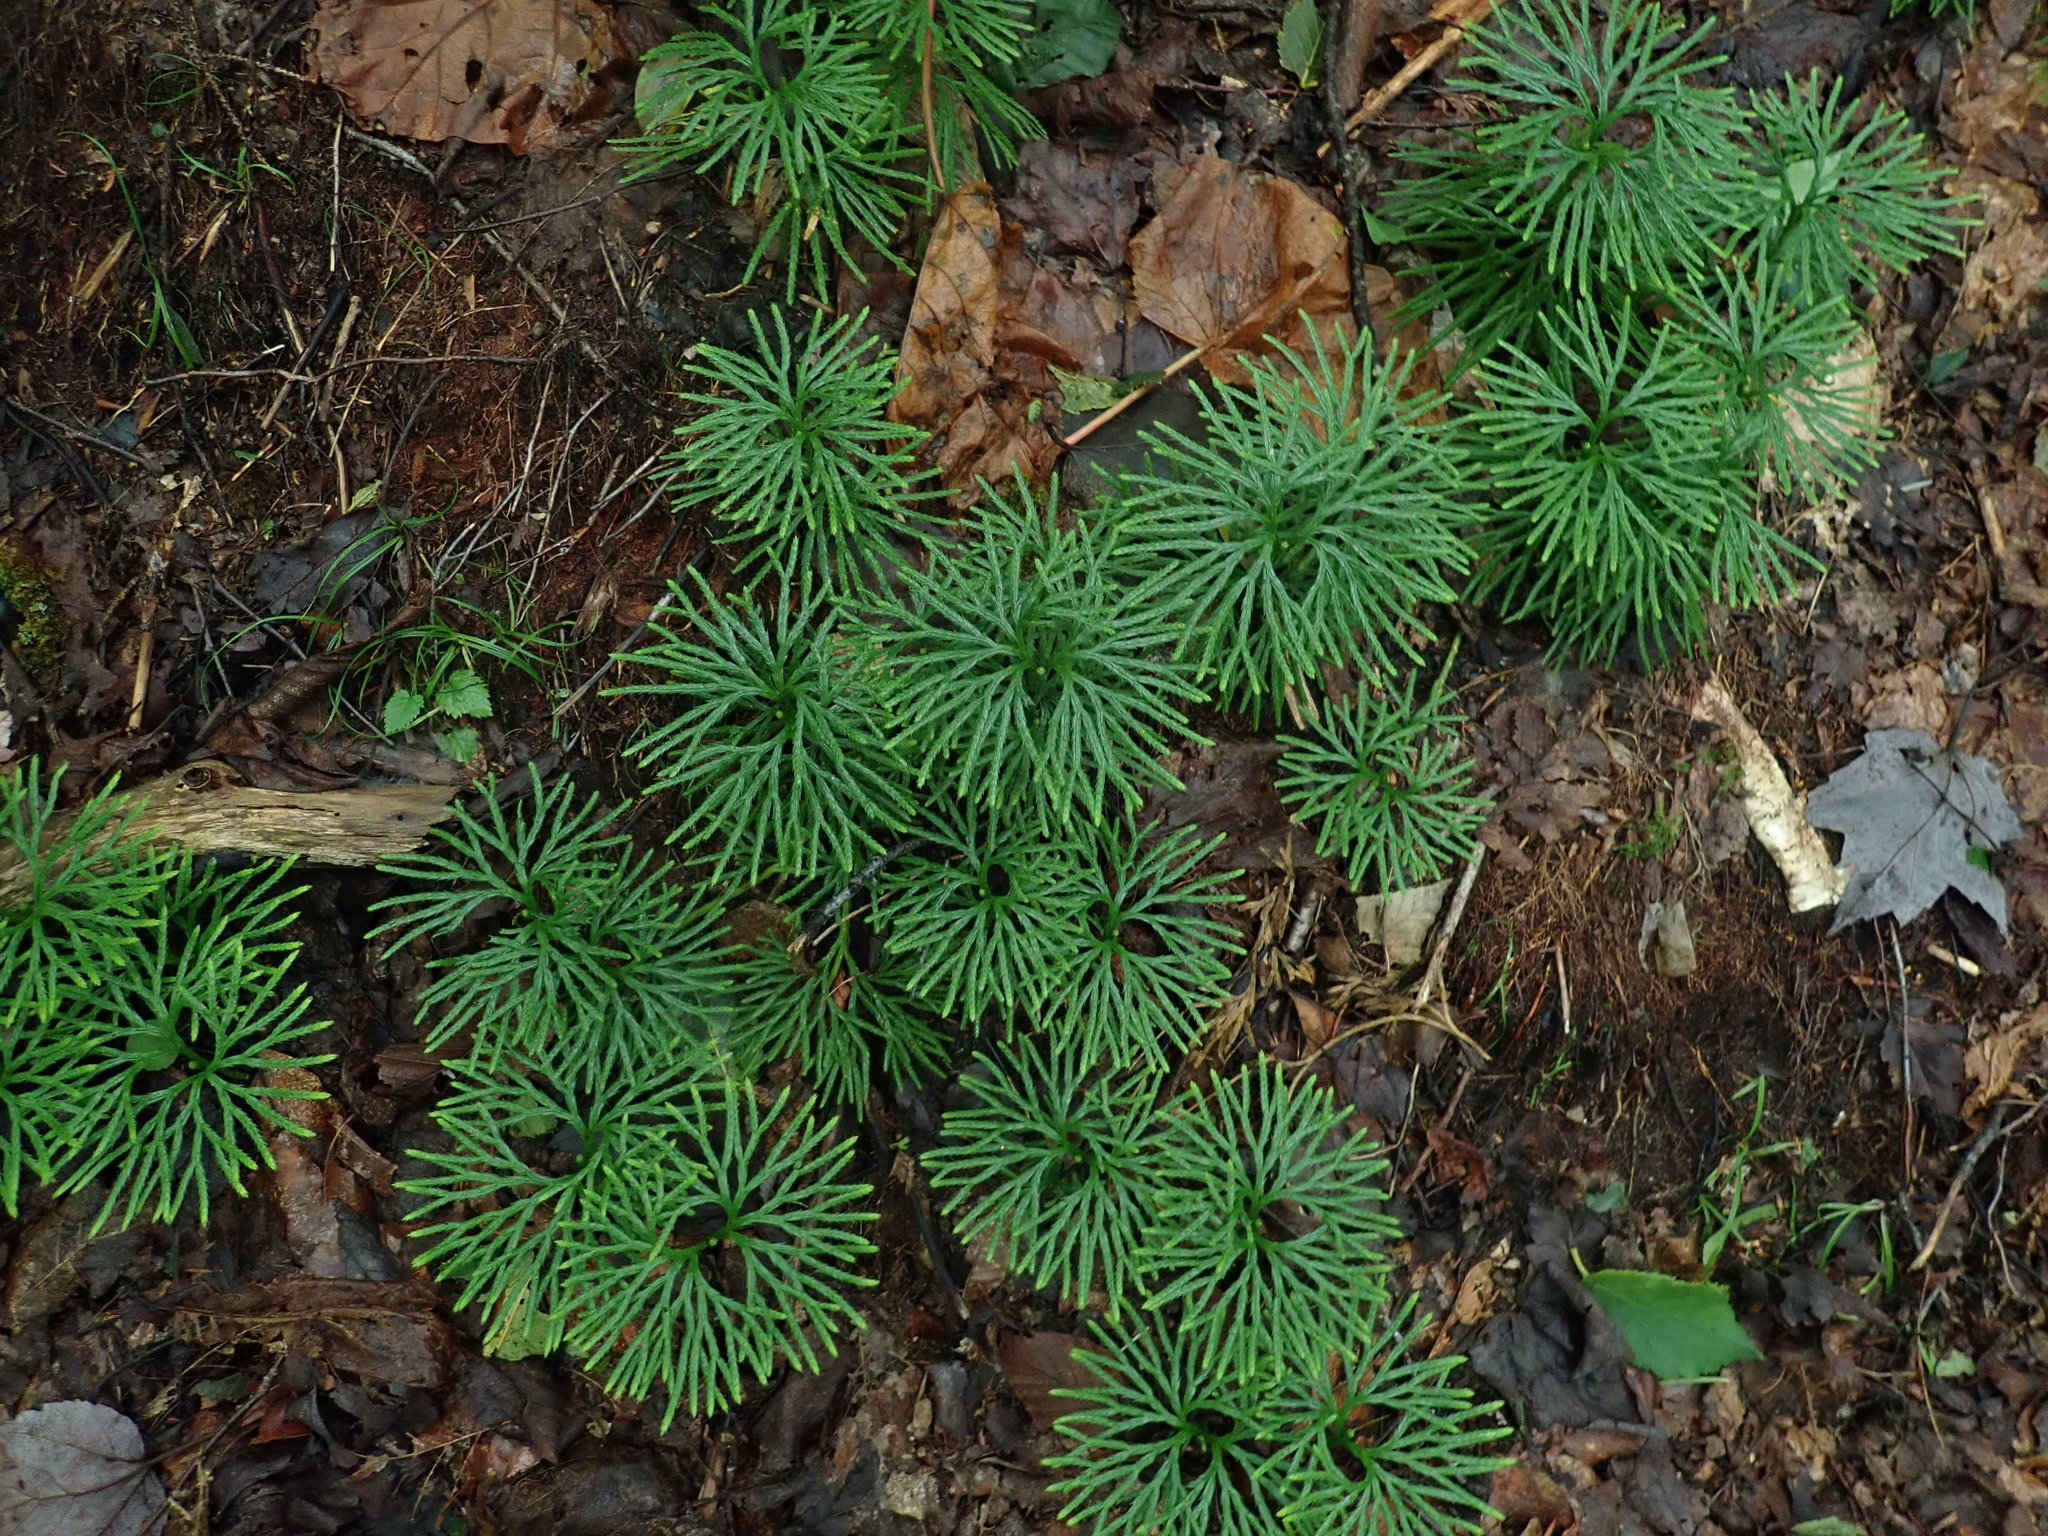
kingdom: Plantae
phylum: Tracheophyta
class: Lycopodiopsida
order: Lycopodiales
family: Lycopodiaceae
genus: Diphasiastrum
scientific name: Diphasiastrum digitatum
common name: Southern running-pine
